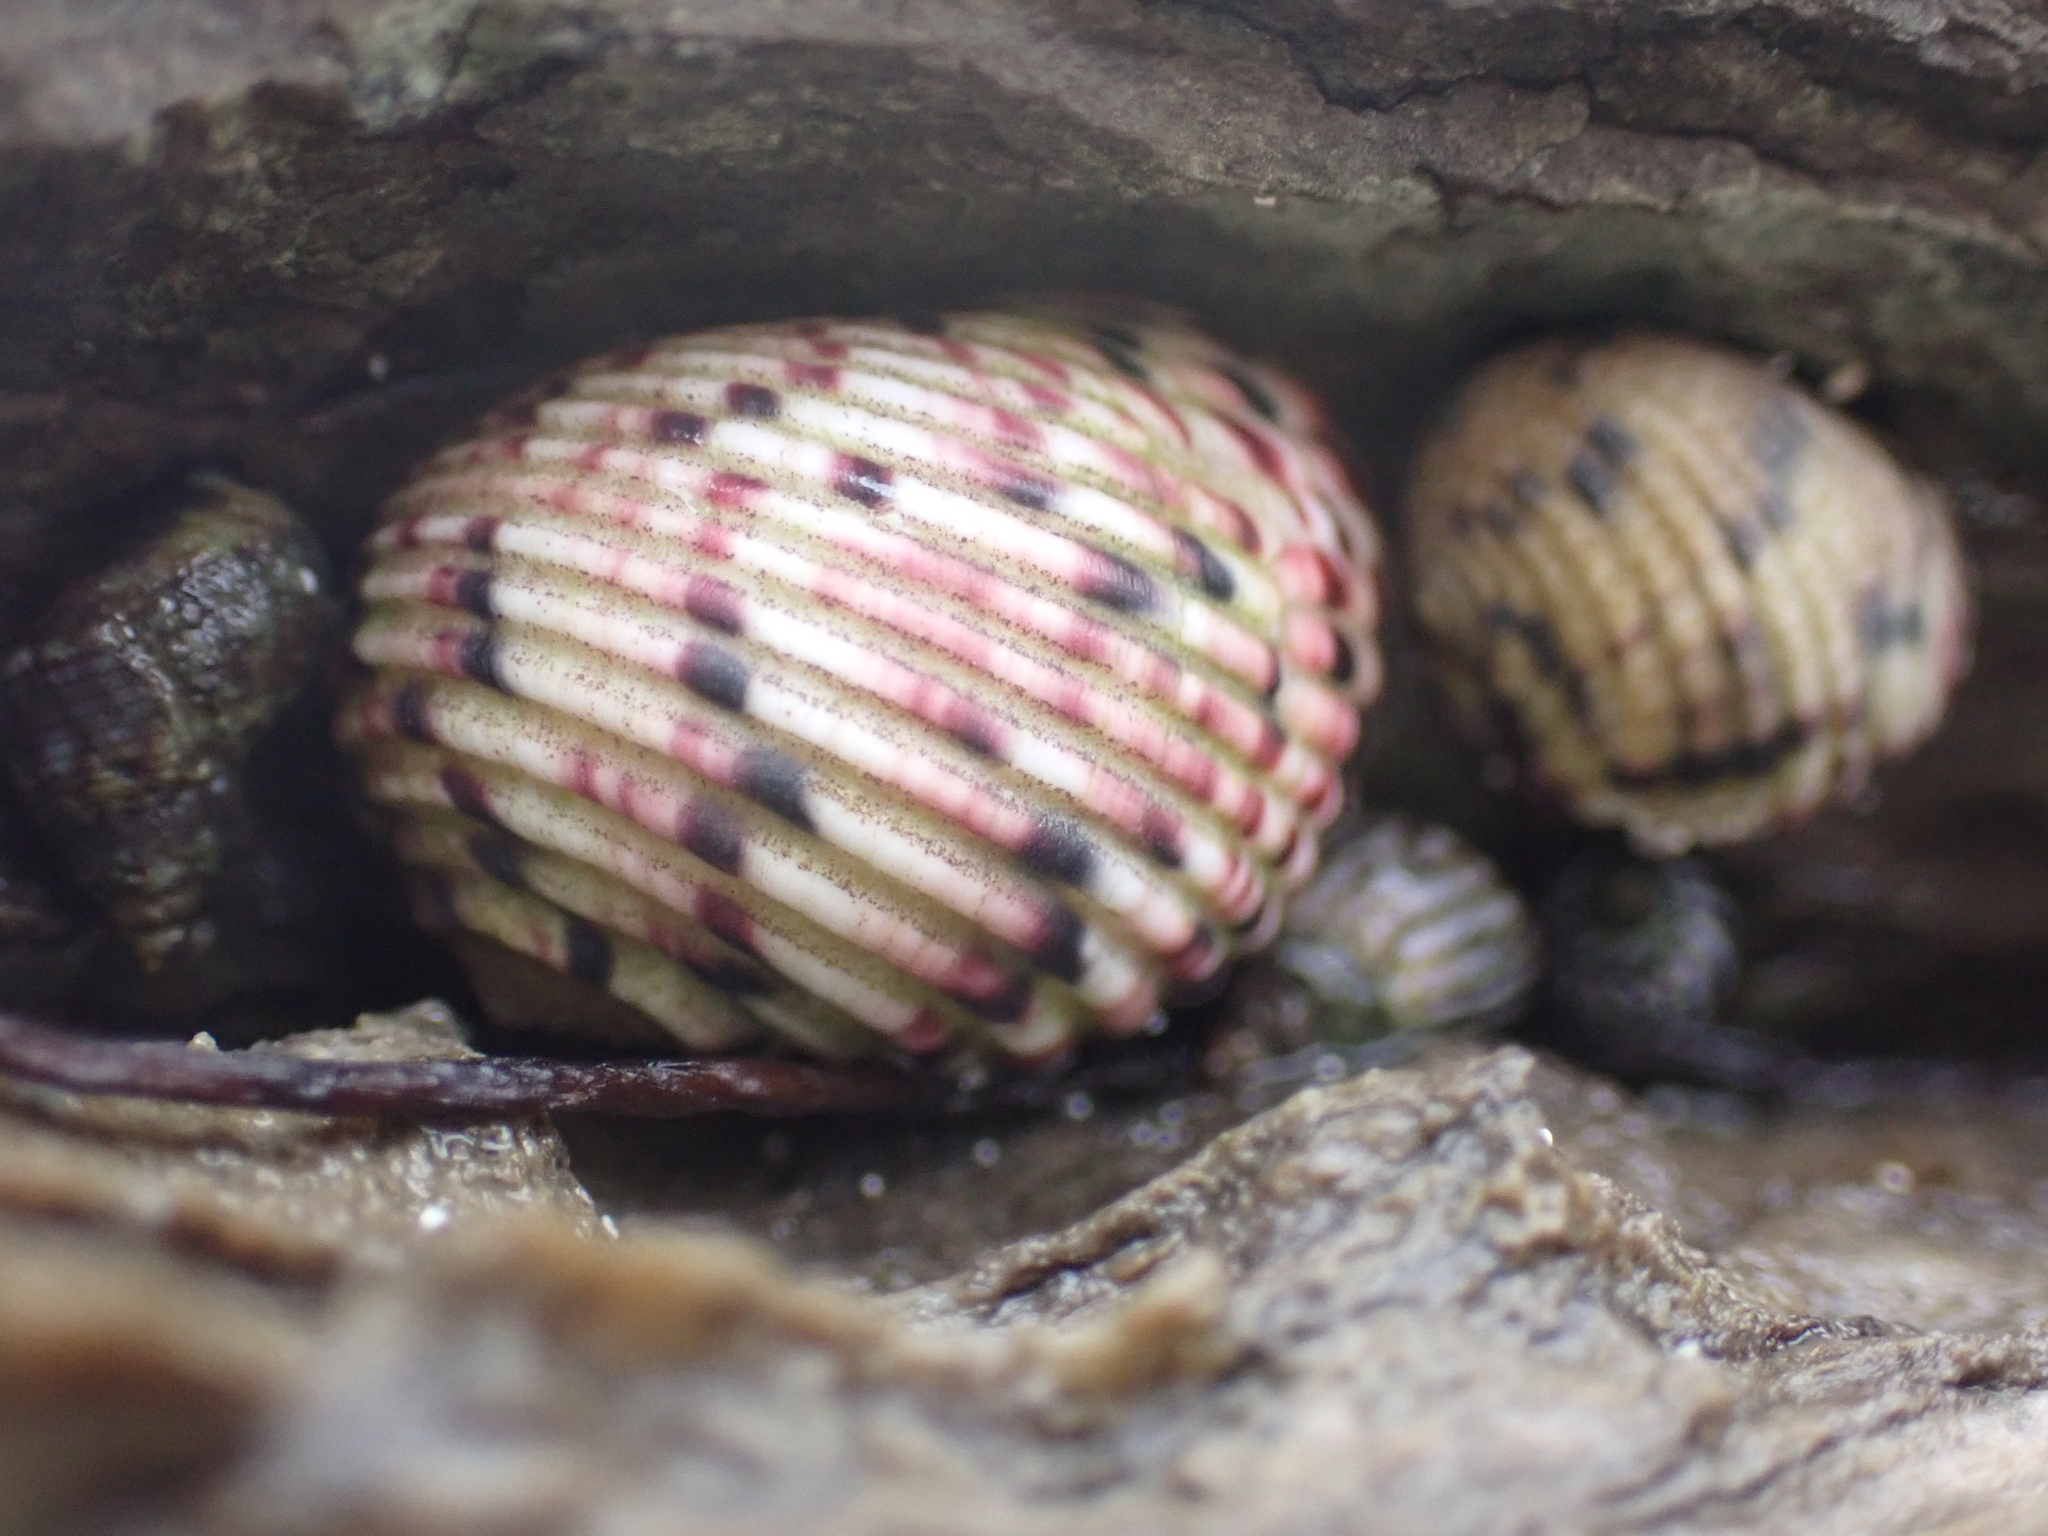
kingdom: Animalia
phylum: Mollusca
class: Gastropoda
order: Cycloneritida
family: Neritidae
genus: Nerita
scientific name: Nerita versicolor
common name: Four-tooth nerite
